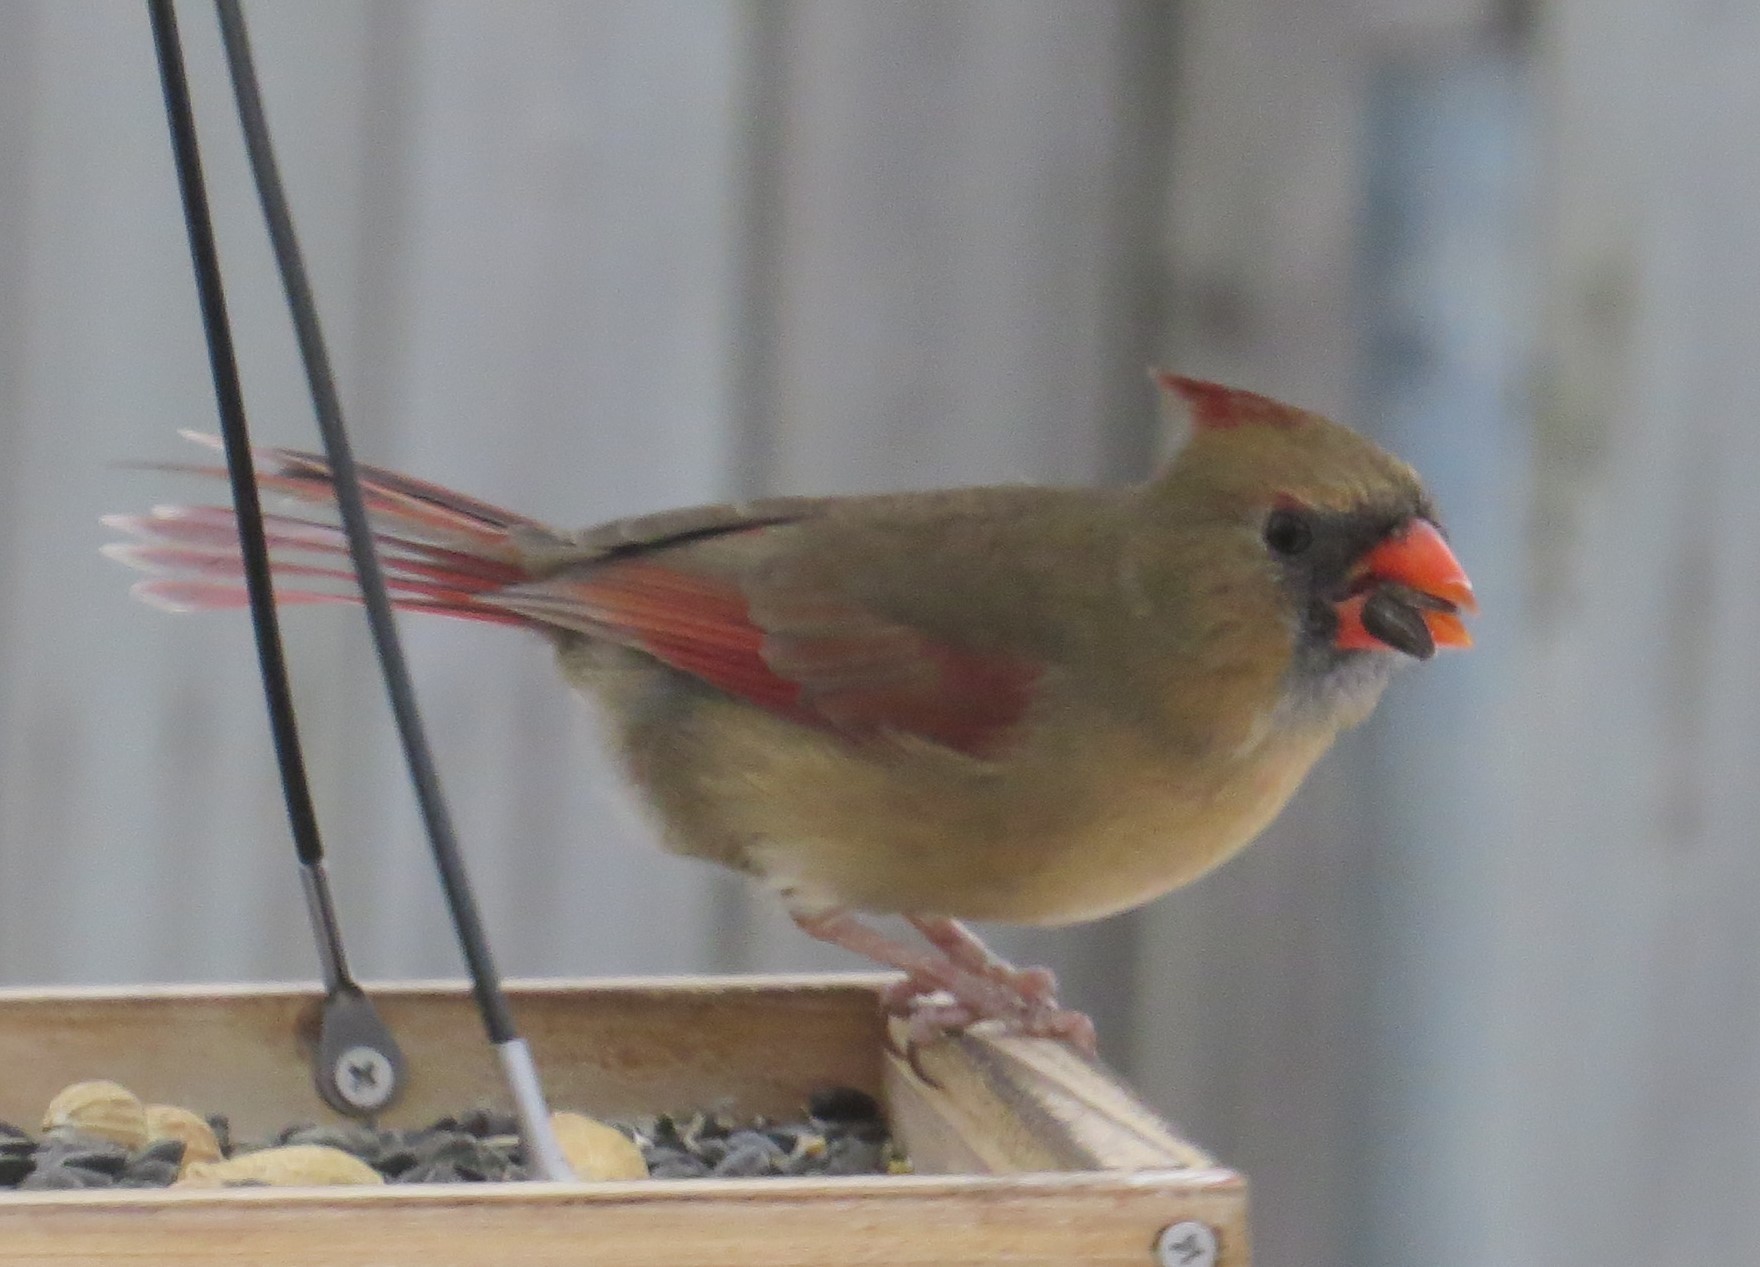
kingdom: Animalia
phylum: Chordata
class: Aves
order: Passeriformes
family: Cardinalidae
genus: Cardinalis
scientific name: Cardinalis cardinalis
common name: Northern cardinal
